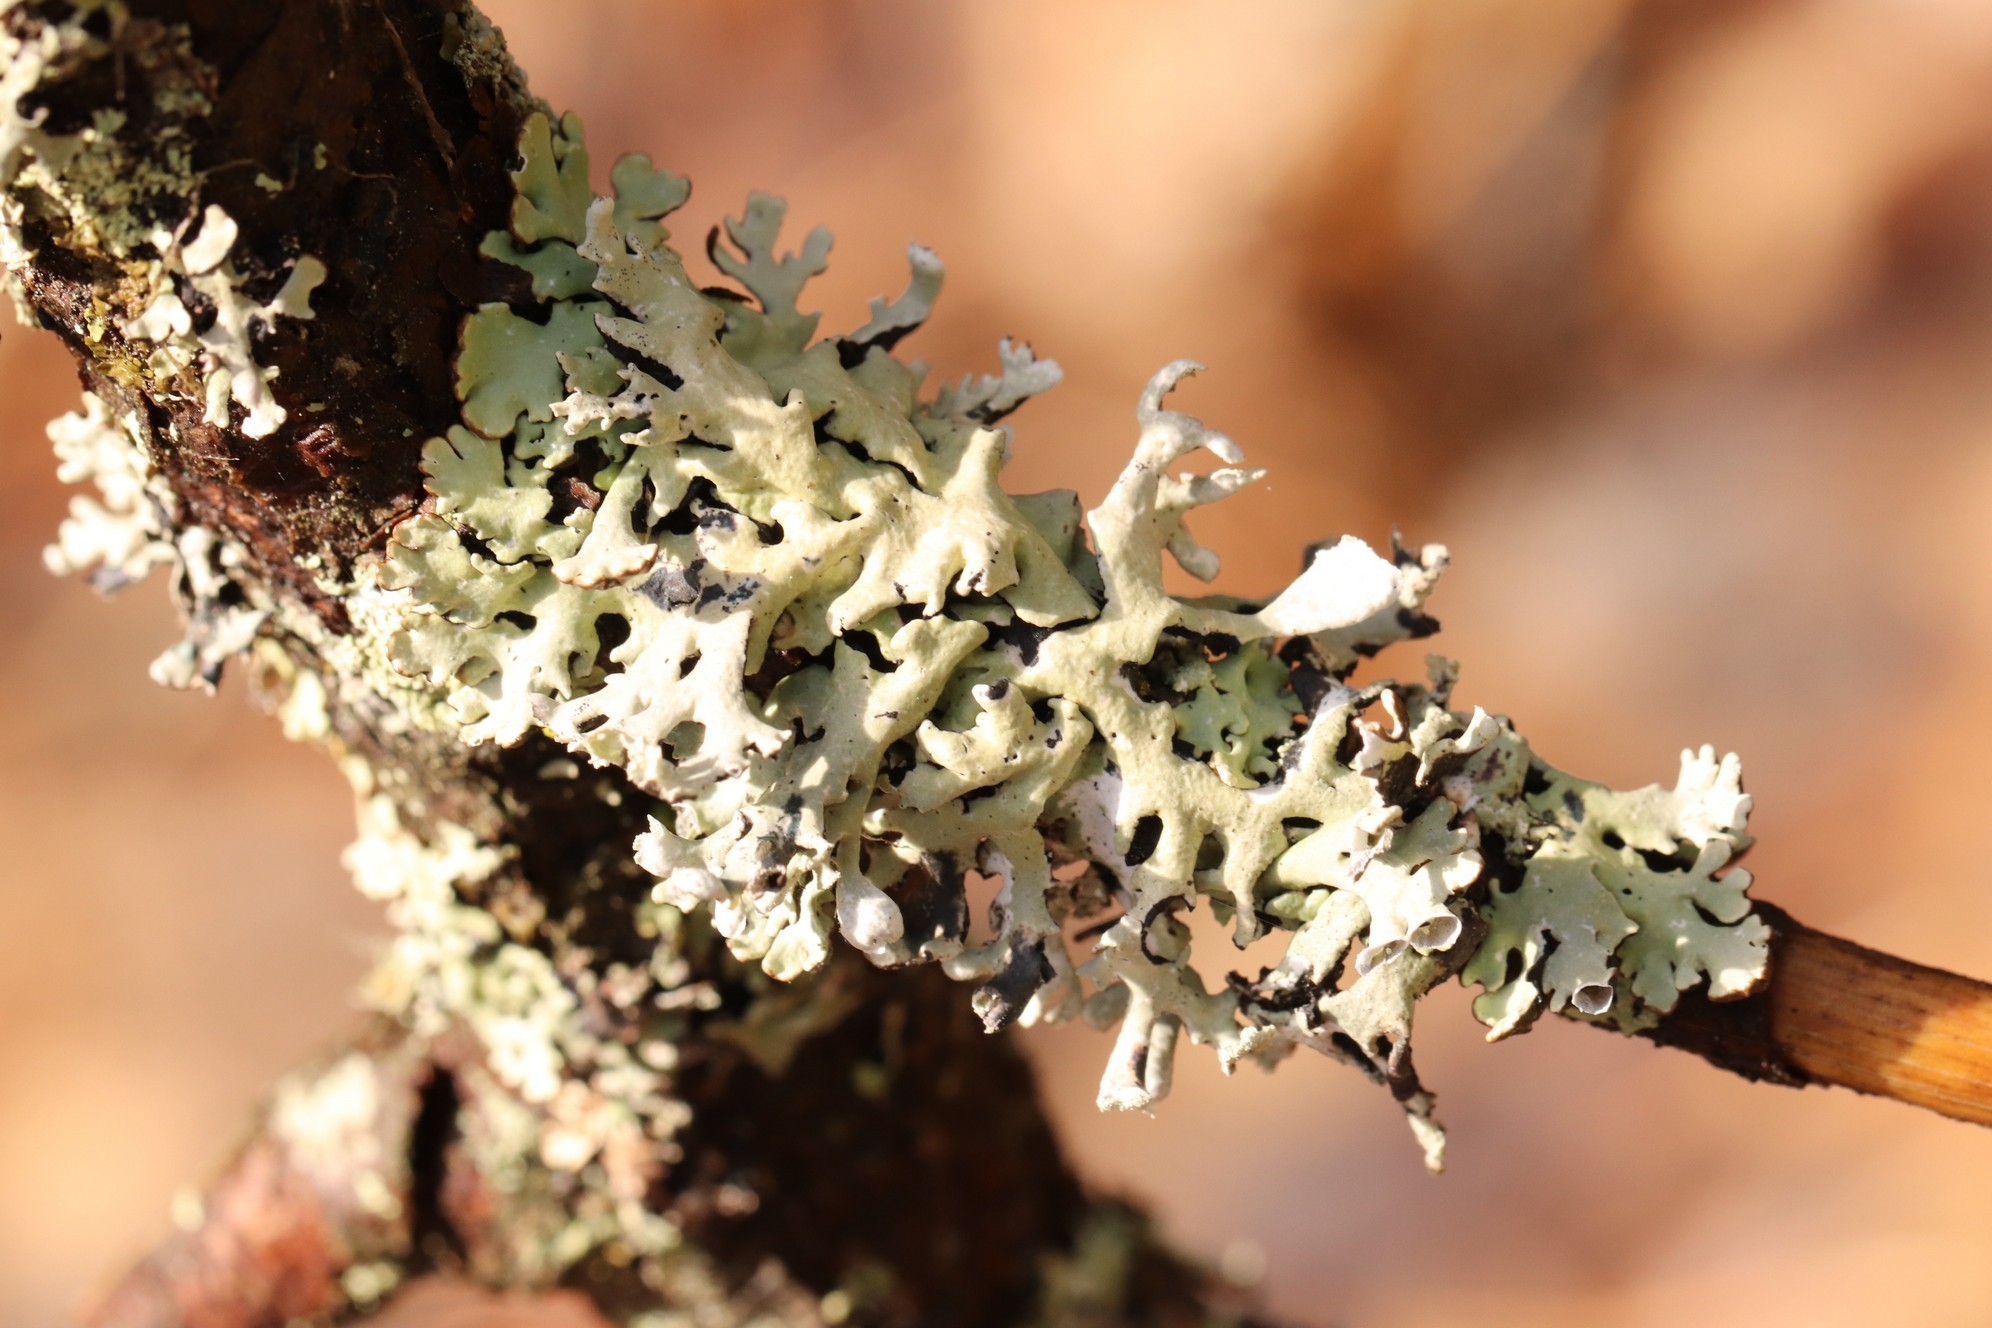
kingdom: Fungi
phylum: Ascomycota
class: Lecanoromycetes
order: Lecanorales
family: Parmeliaceae
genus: Hypogymnia
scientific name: Hypogymnia physodes
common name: Dark crottle
